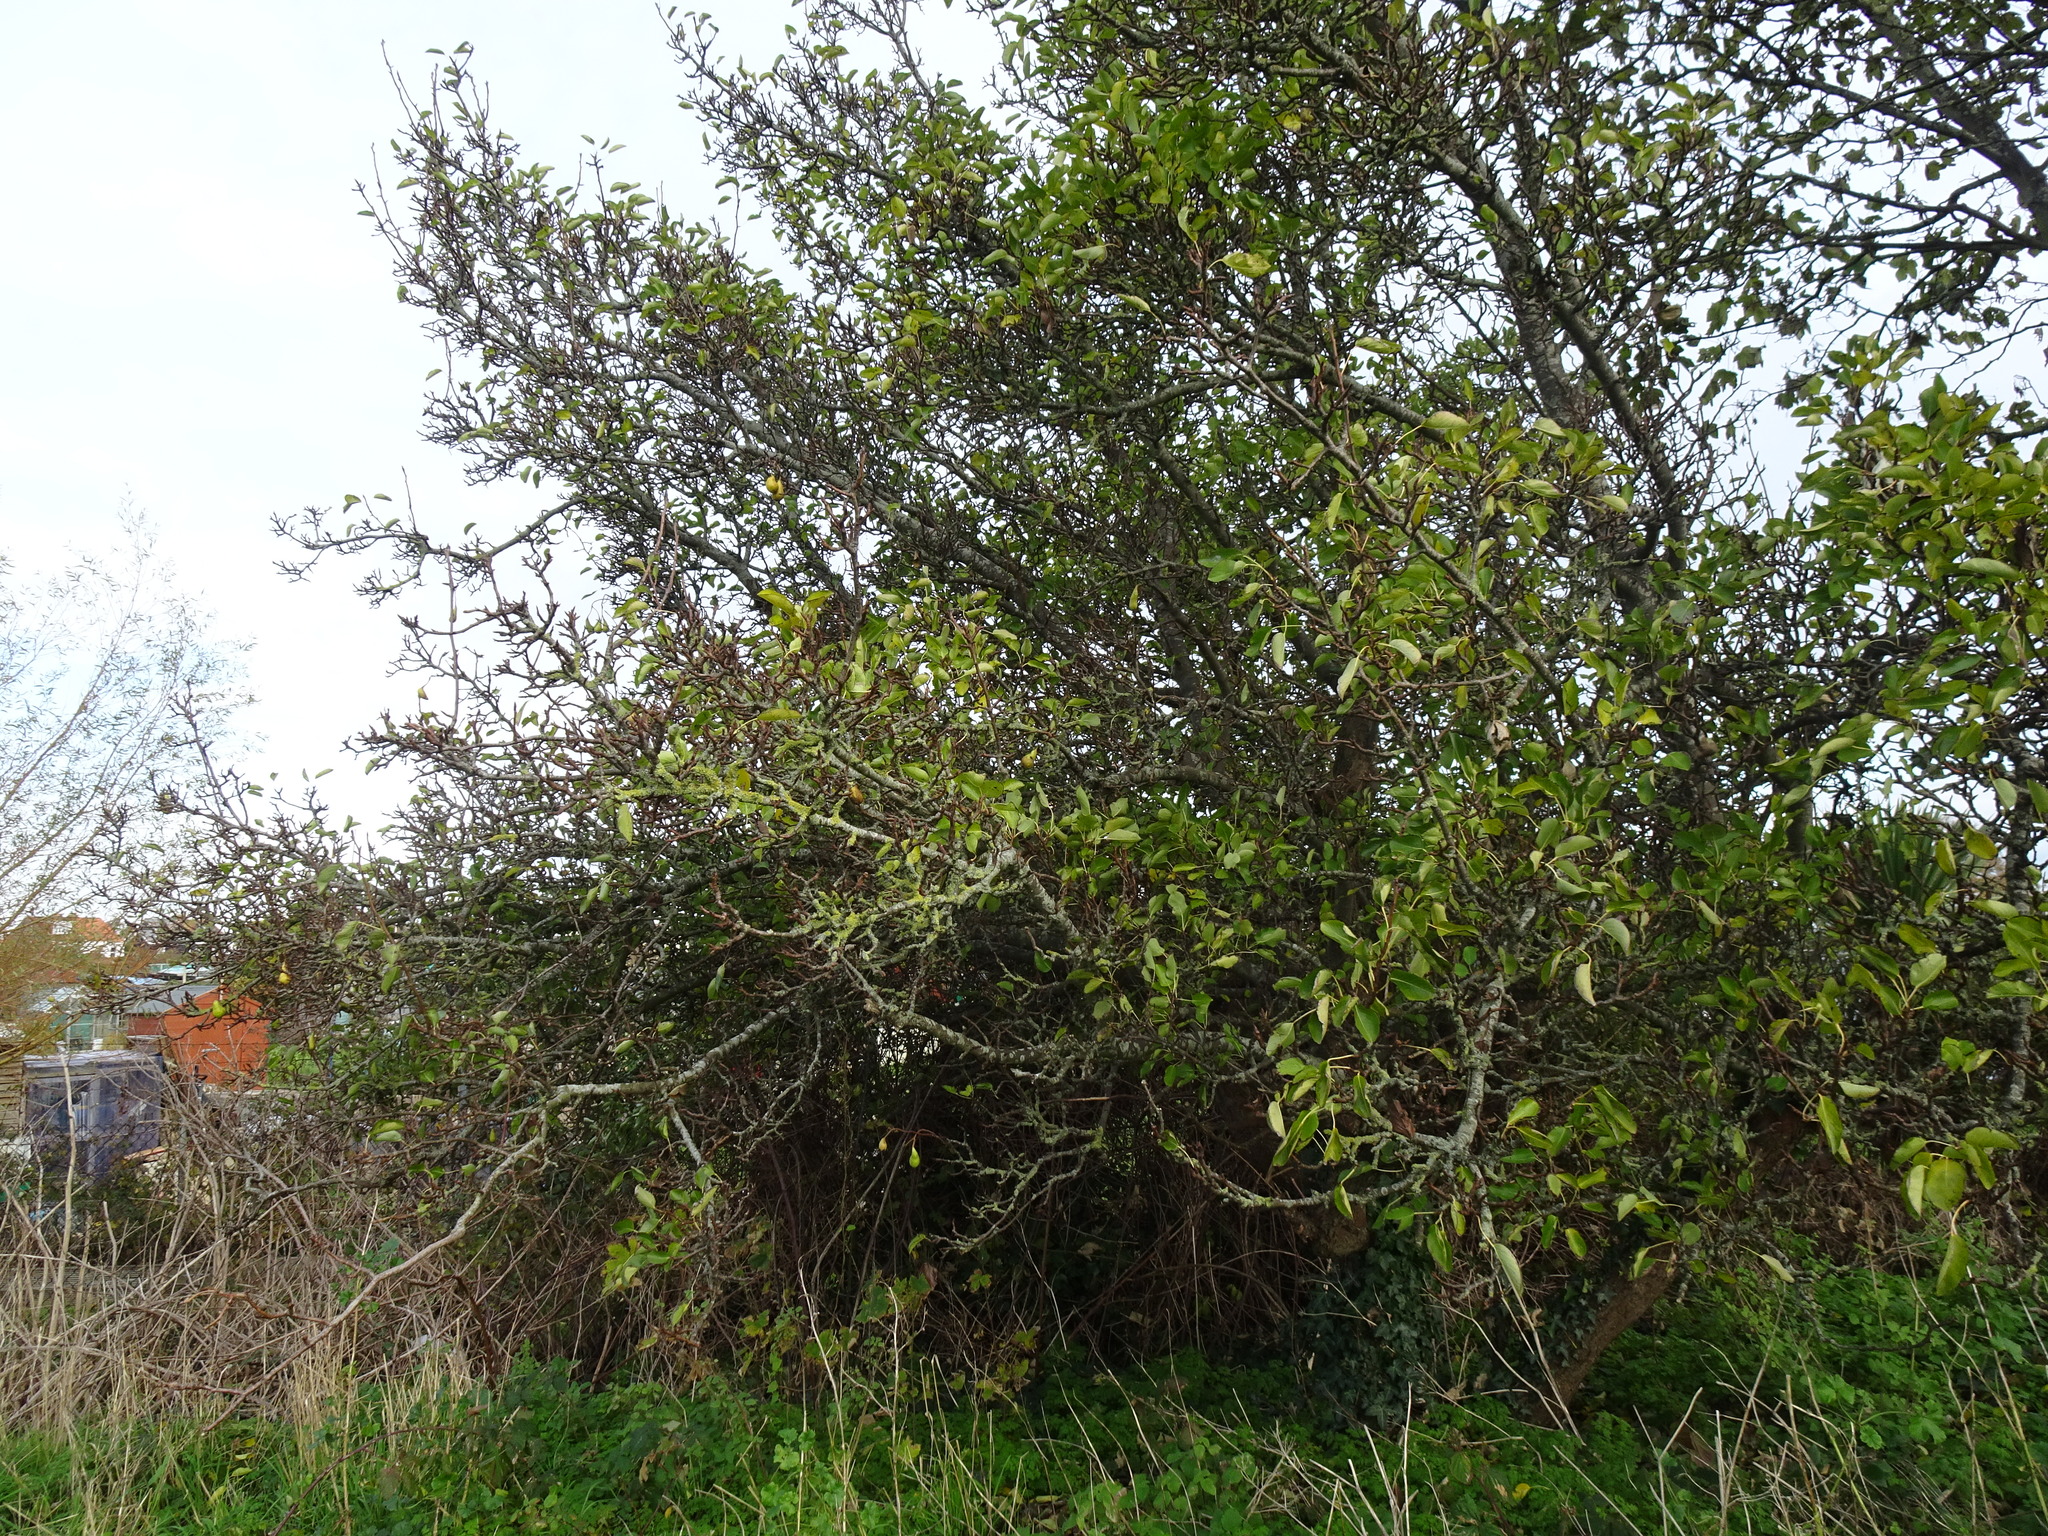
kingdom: Plantae
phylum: Tracheophyta
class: Magnoliopsida
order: Rosales
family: Rosaceae
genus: Pyrus
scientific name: Pyrus communis
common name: Pear
